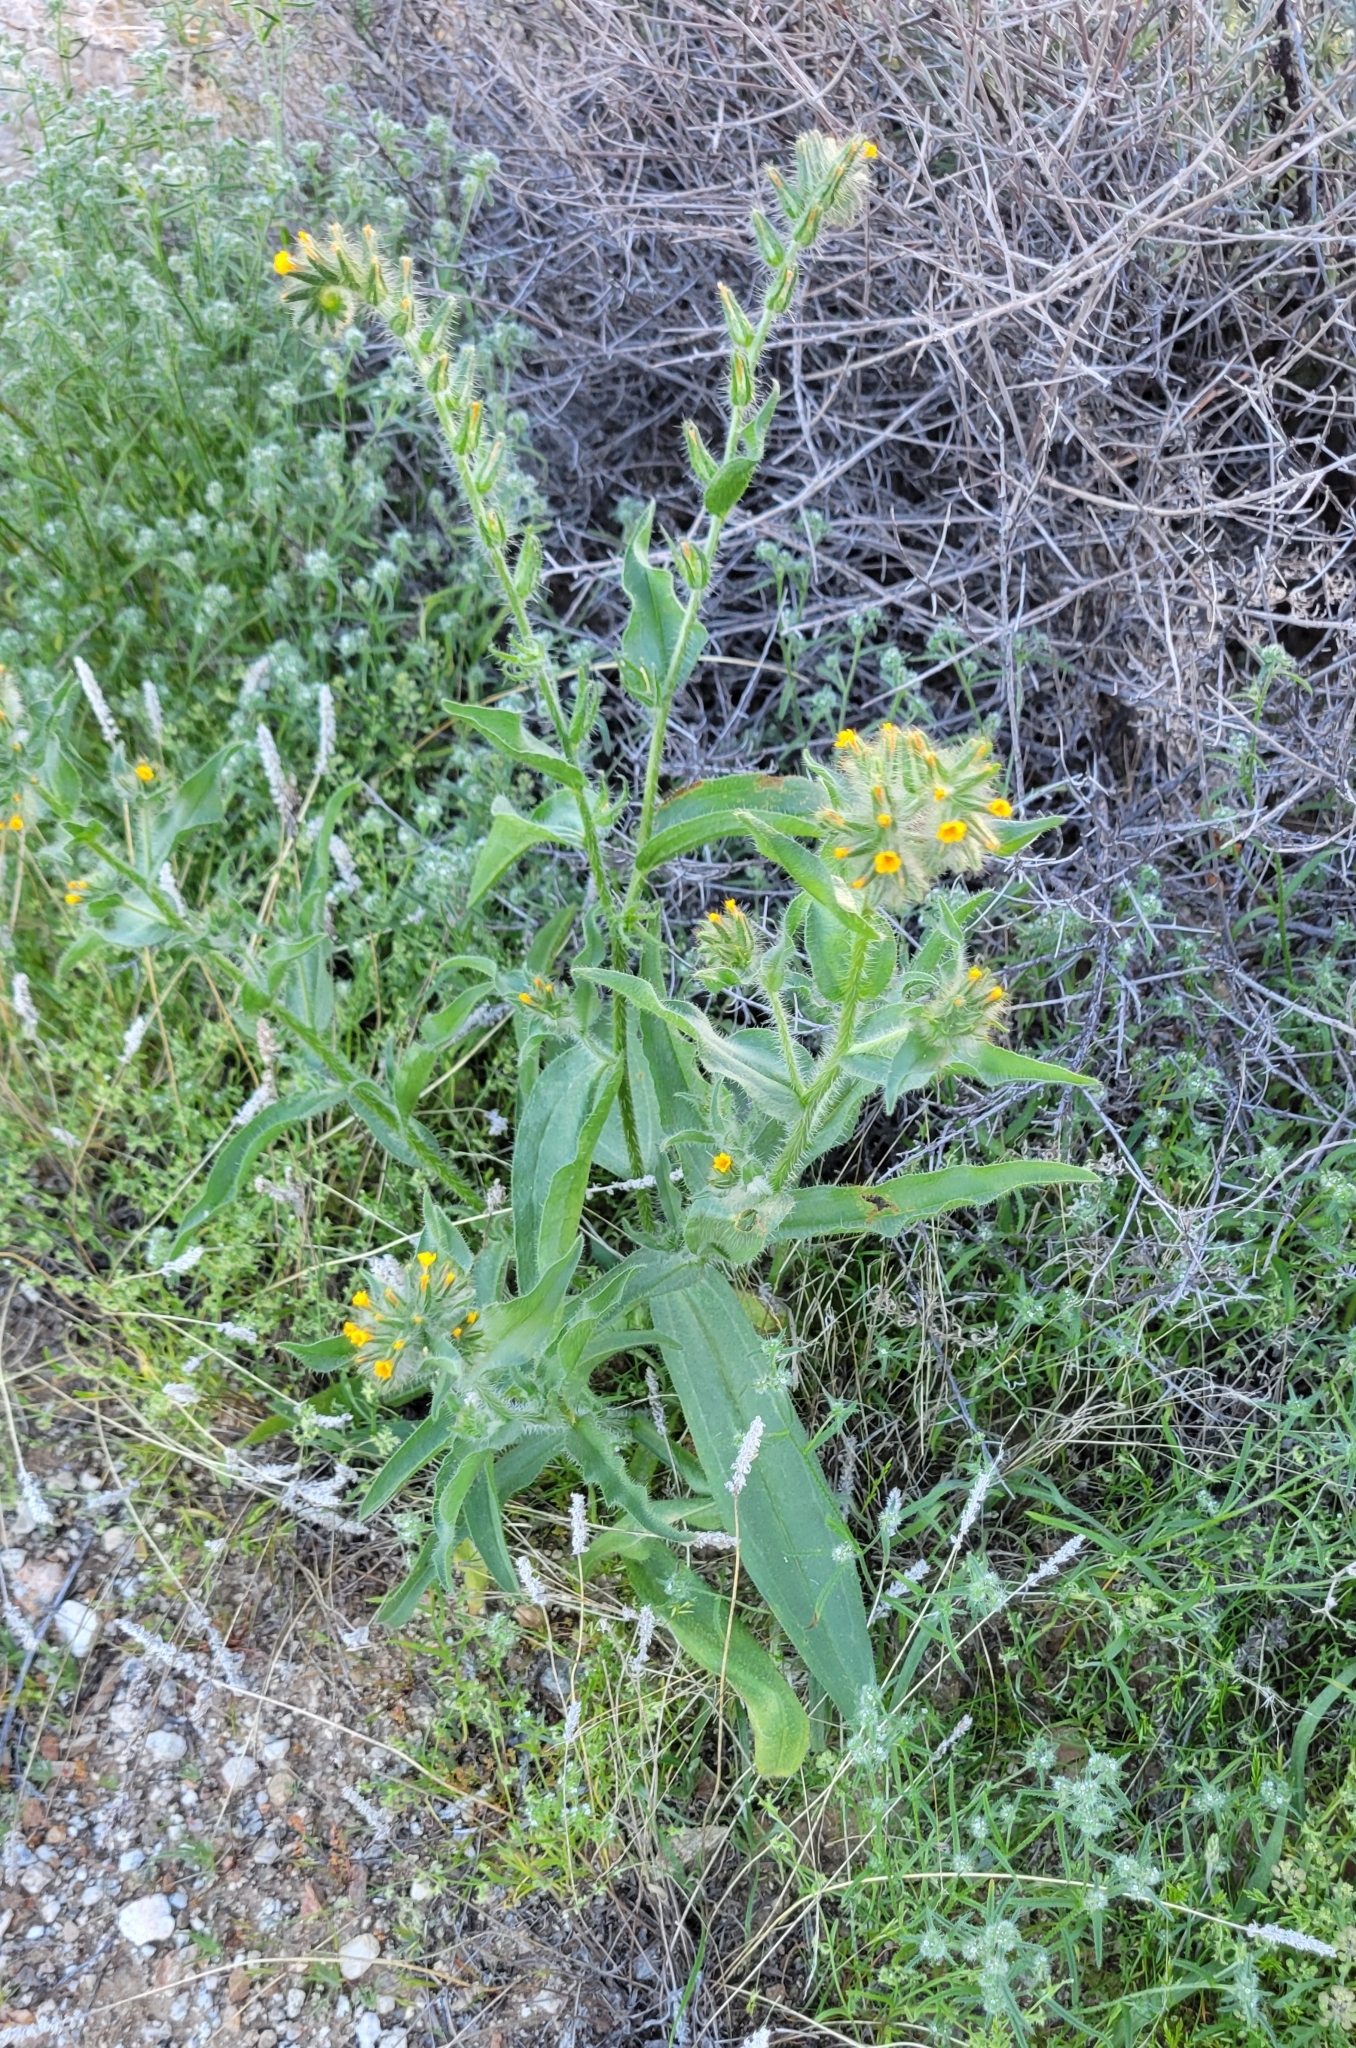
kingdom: Plantae
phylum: Tracheophyta
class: Magnoliopsida
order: Boraginales
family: Boraginaceae
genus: Amsinckia
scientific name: Amsinckia tessellata
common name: Tessellate fiddleneck
